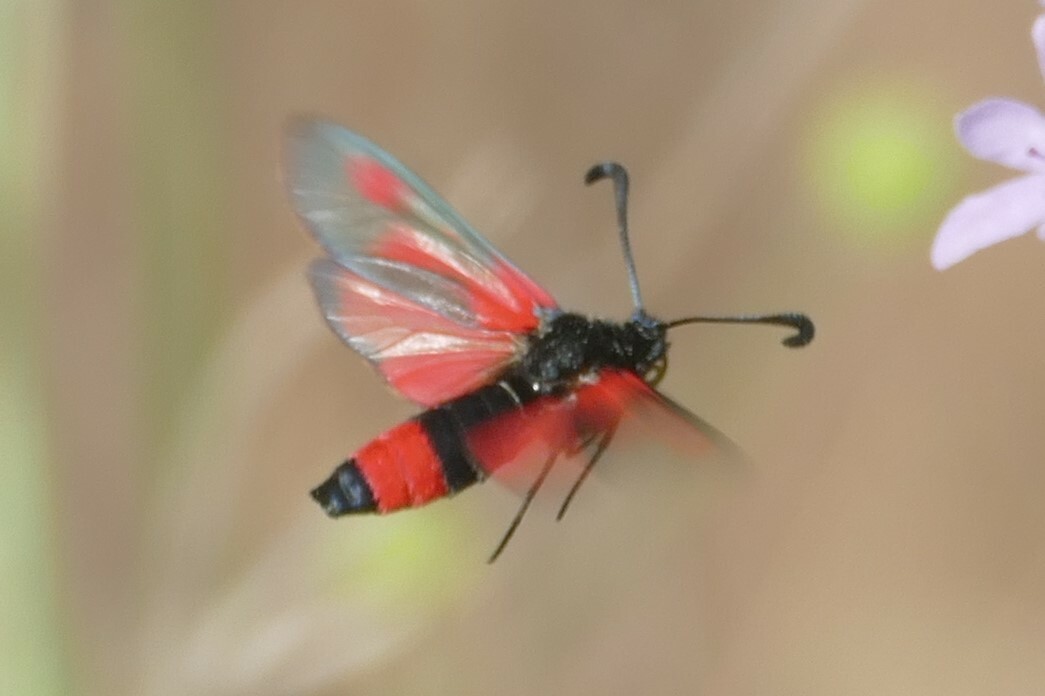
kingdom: Animalia
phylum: Arthropoda
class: Insecta
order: Lepidoptera
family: Zygaenidae
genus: Zygaena
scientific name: Zygaena sarpedon
